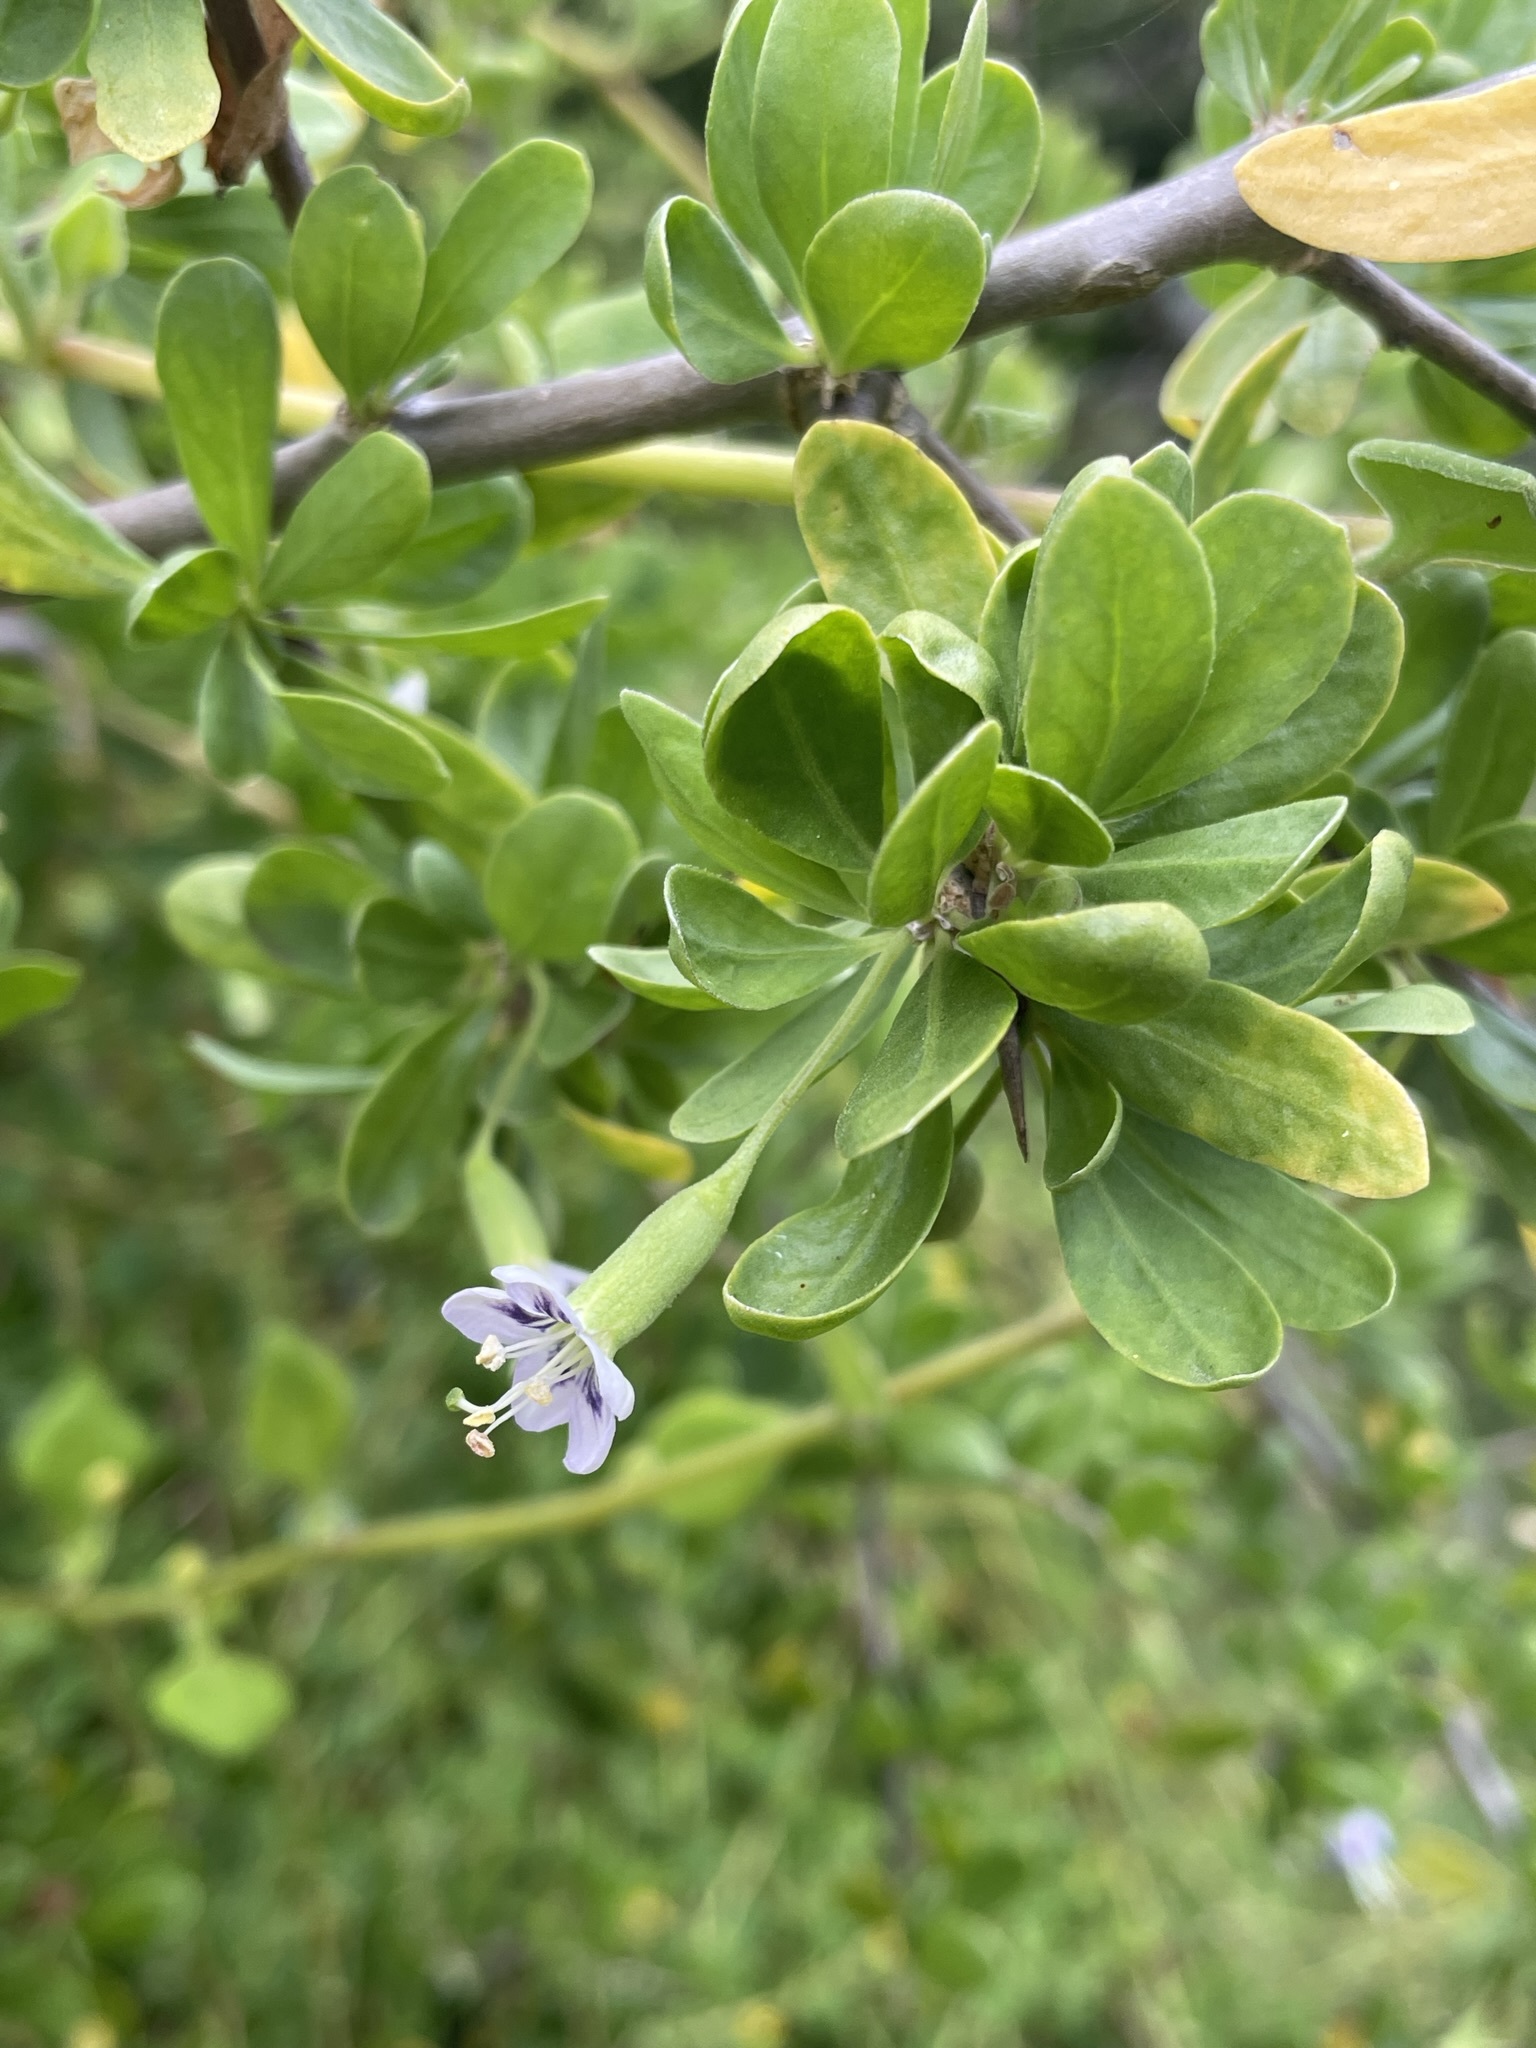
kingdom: Plantae
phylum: Tracheophyta
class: Magnoliopsida
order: Solanales
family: Solanaceae
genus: Lycium
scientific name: Lycium ferocissimum
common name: African boxthorn
